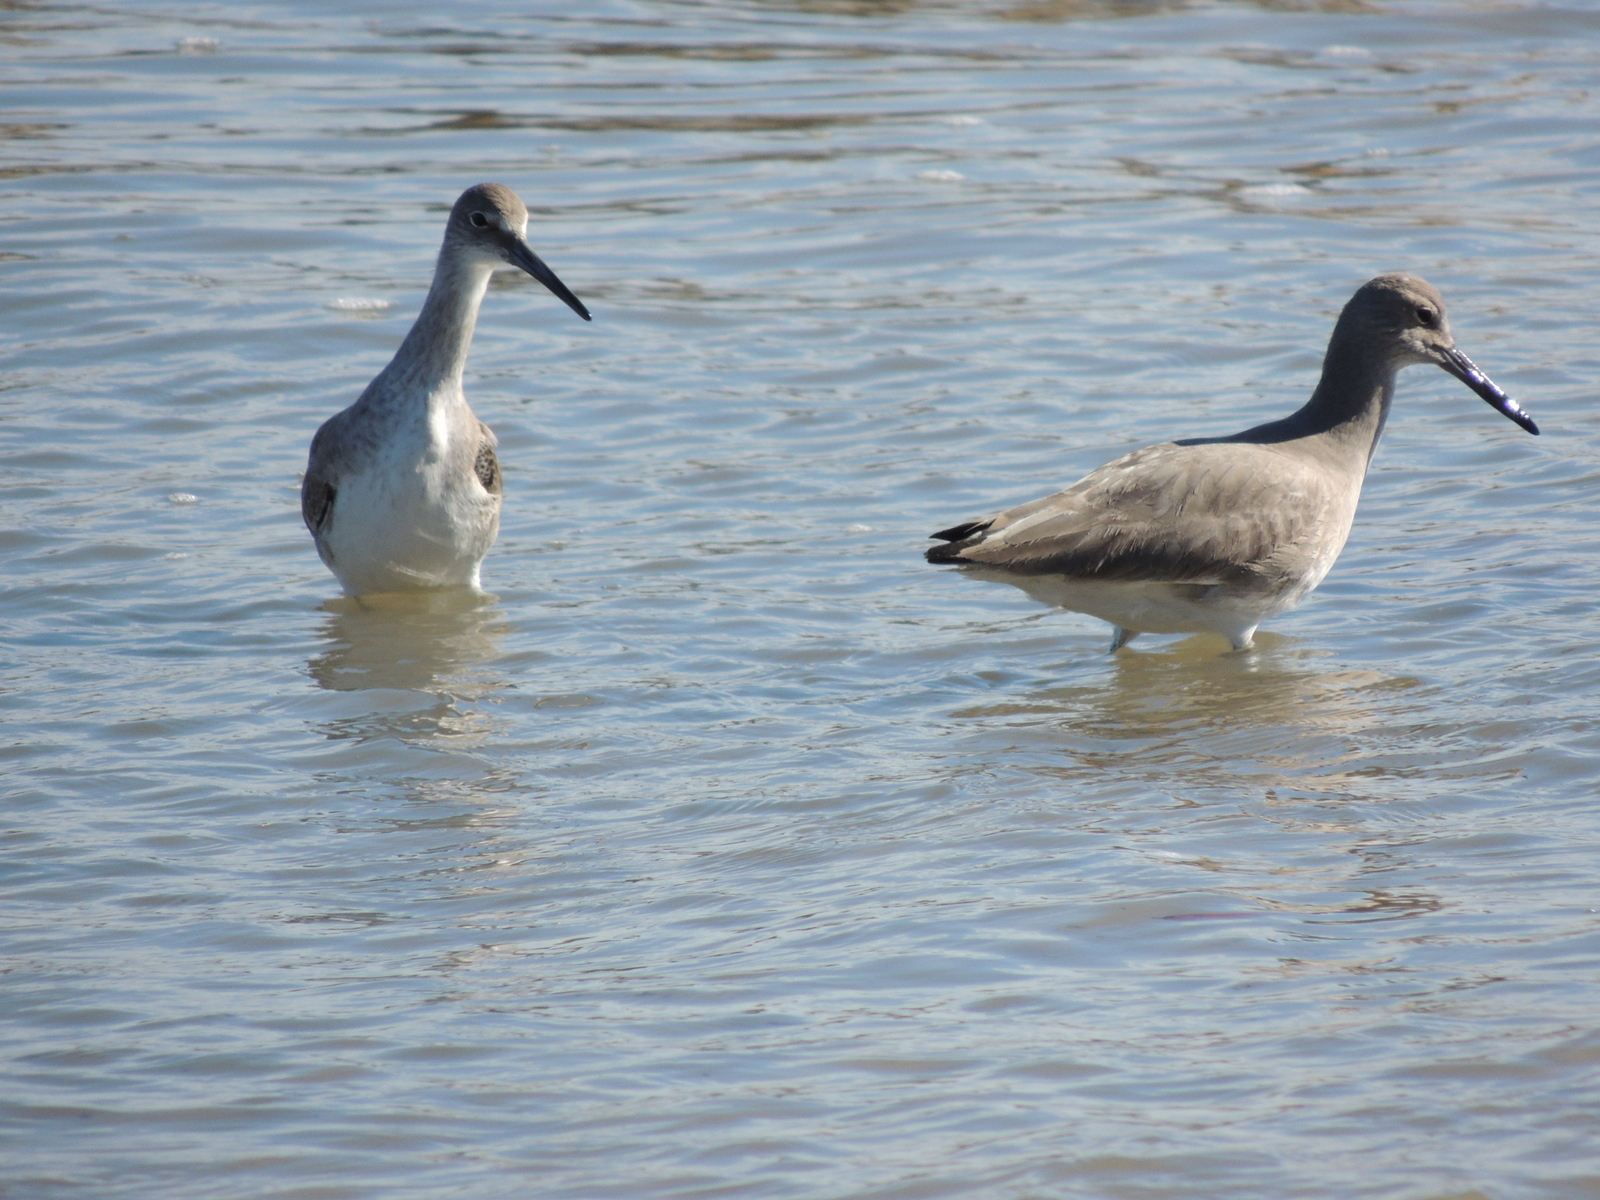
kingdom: Animalia
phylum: Chordata
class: Aves
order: Charadriiformes
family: Scolopacidae
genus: Tringa
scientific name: Tringa semipalmata
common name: Willet
